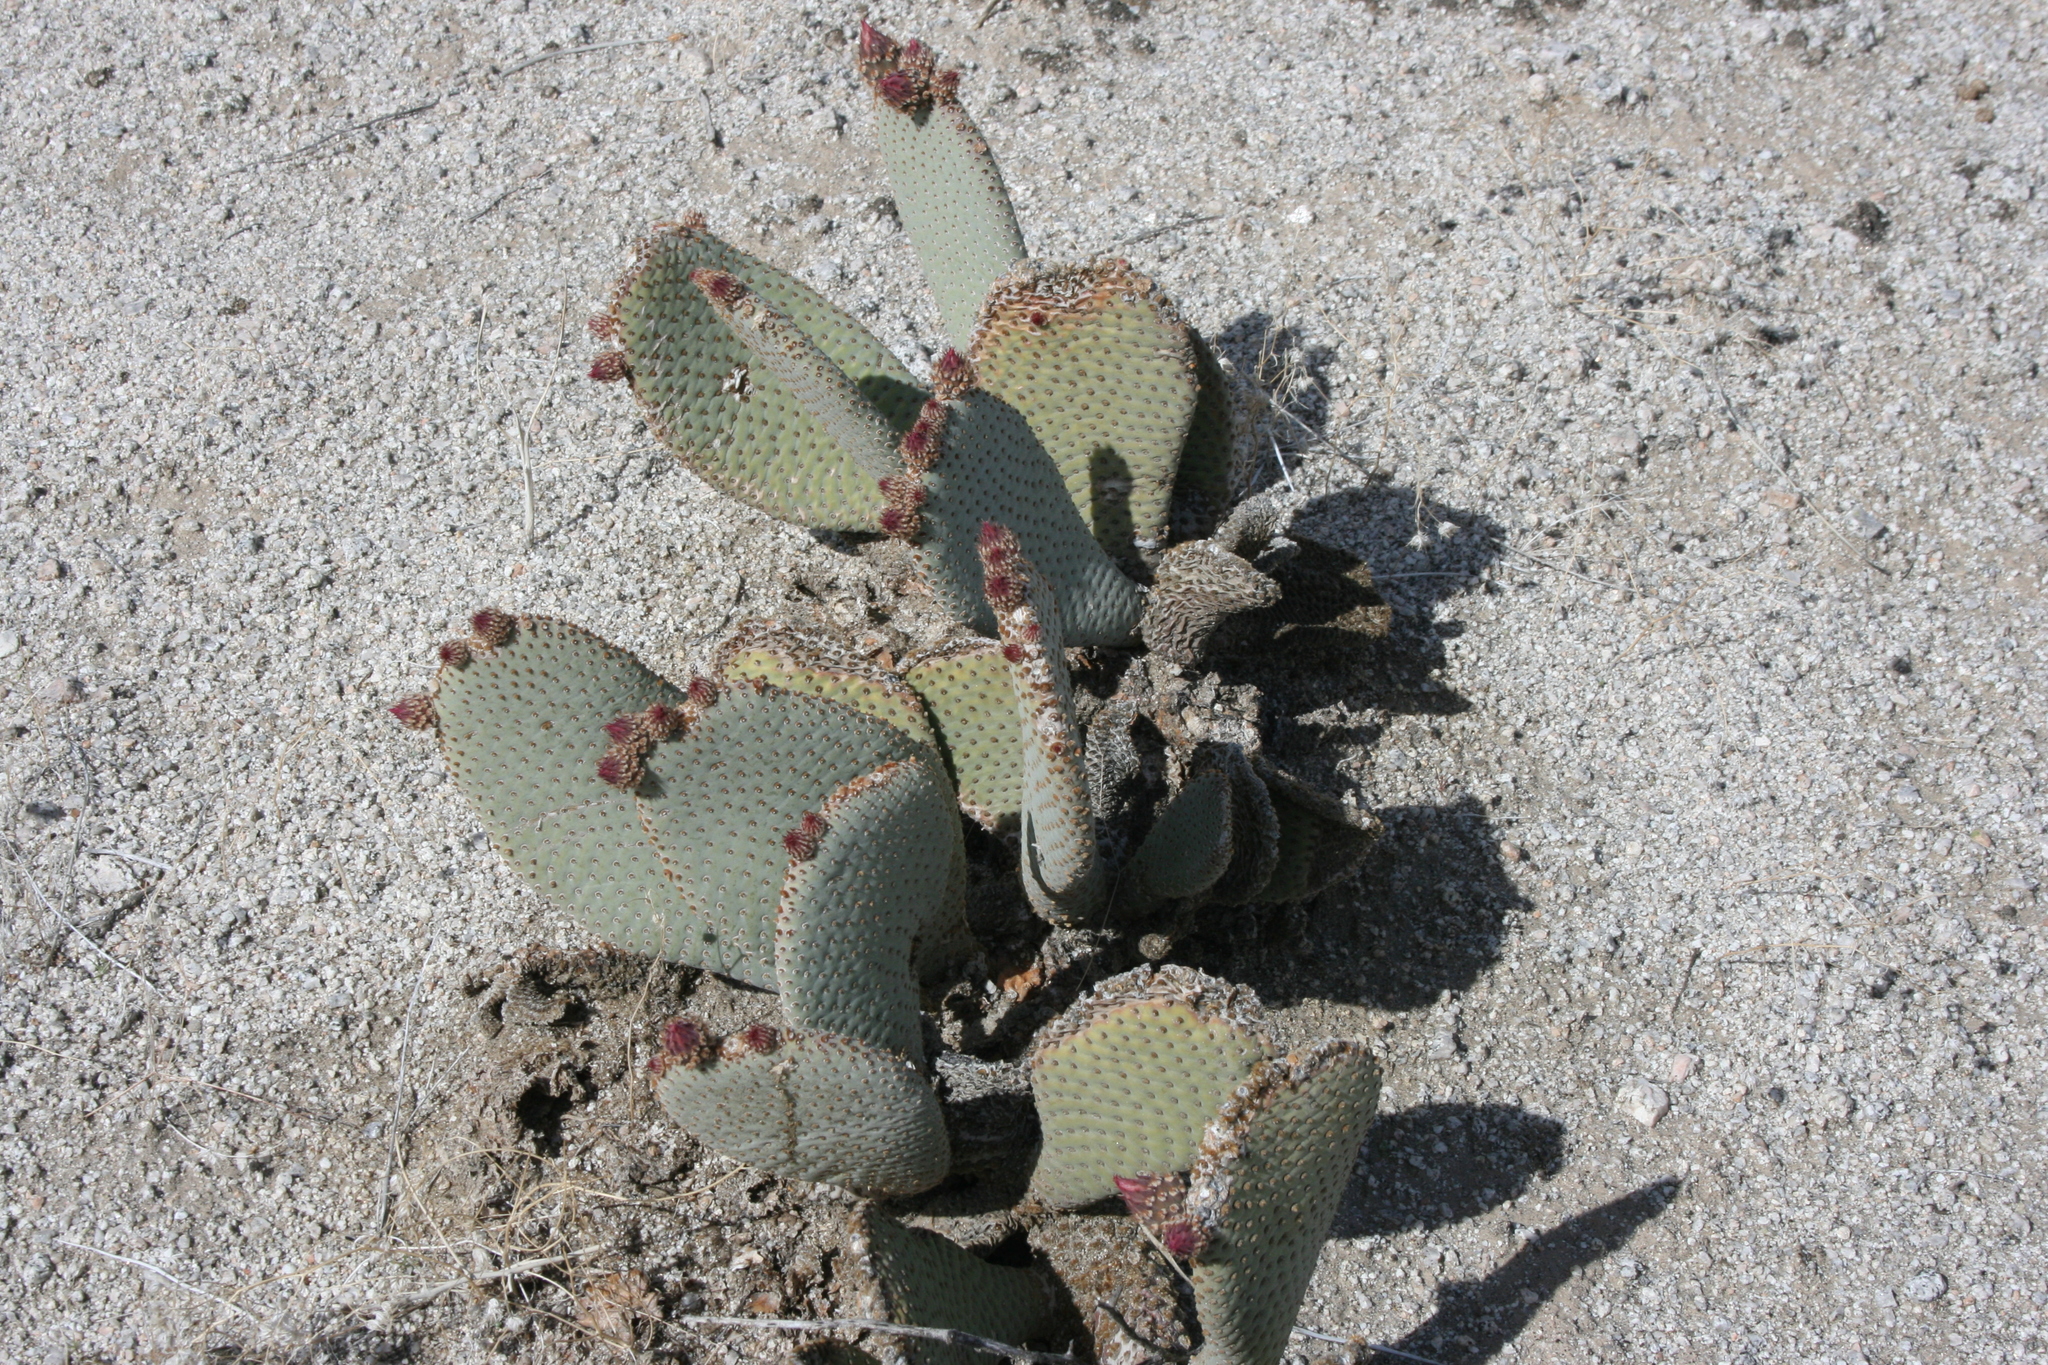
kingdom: Plantae
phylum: Tracheophyta
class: Magnoliopsida
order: Caryophyllales
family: Cactaceae
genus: Opuntia
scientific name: Opuntia basilaris
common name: Beavertail prickly-pear
